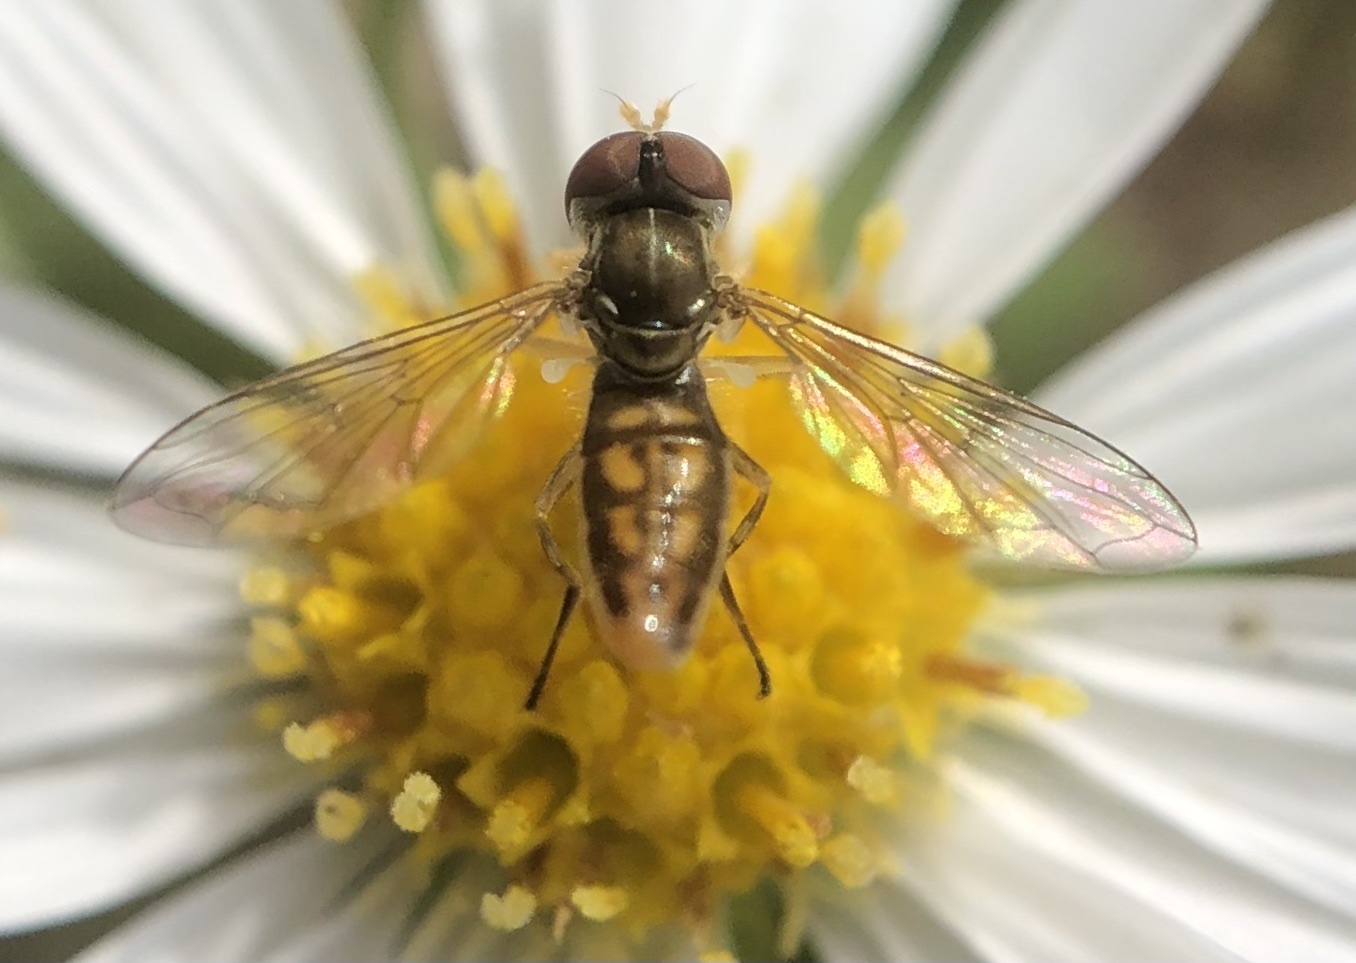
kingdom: Animalia
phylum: Arthropoda
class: Insecta
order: Diptera
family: Syrphidae
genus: Toxomerus
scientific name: Toxomerus marginatus
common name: Syrphid fly
